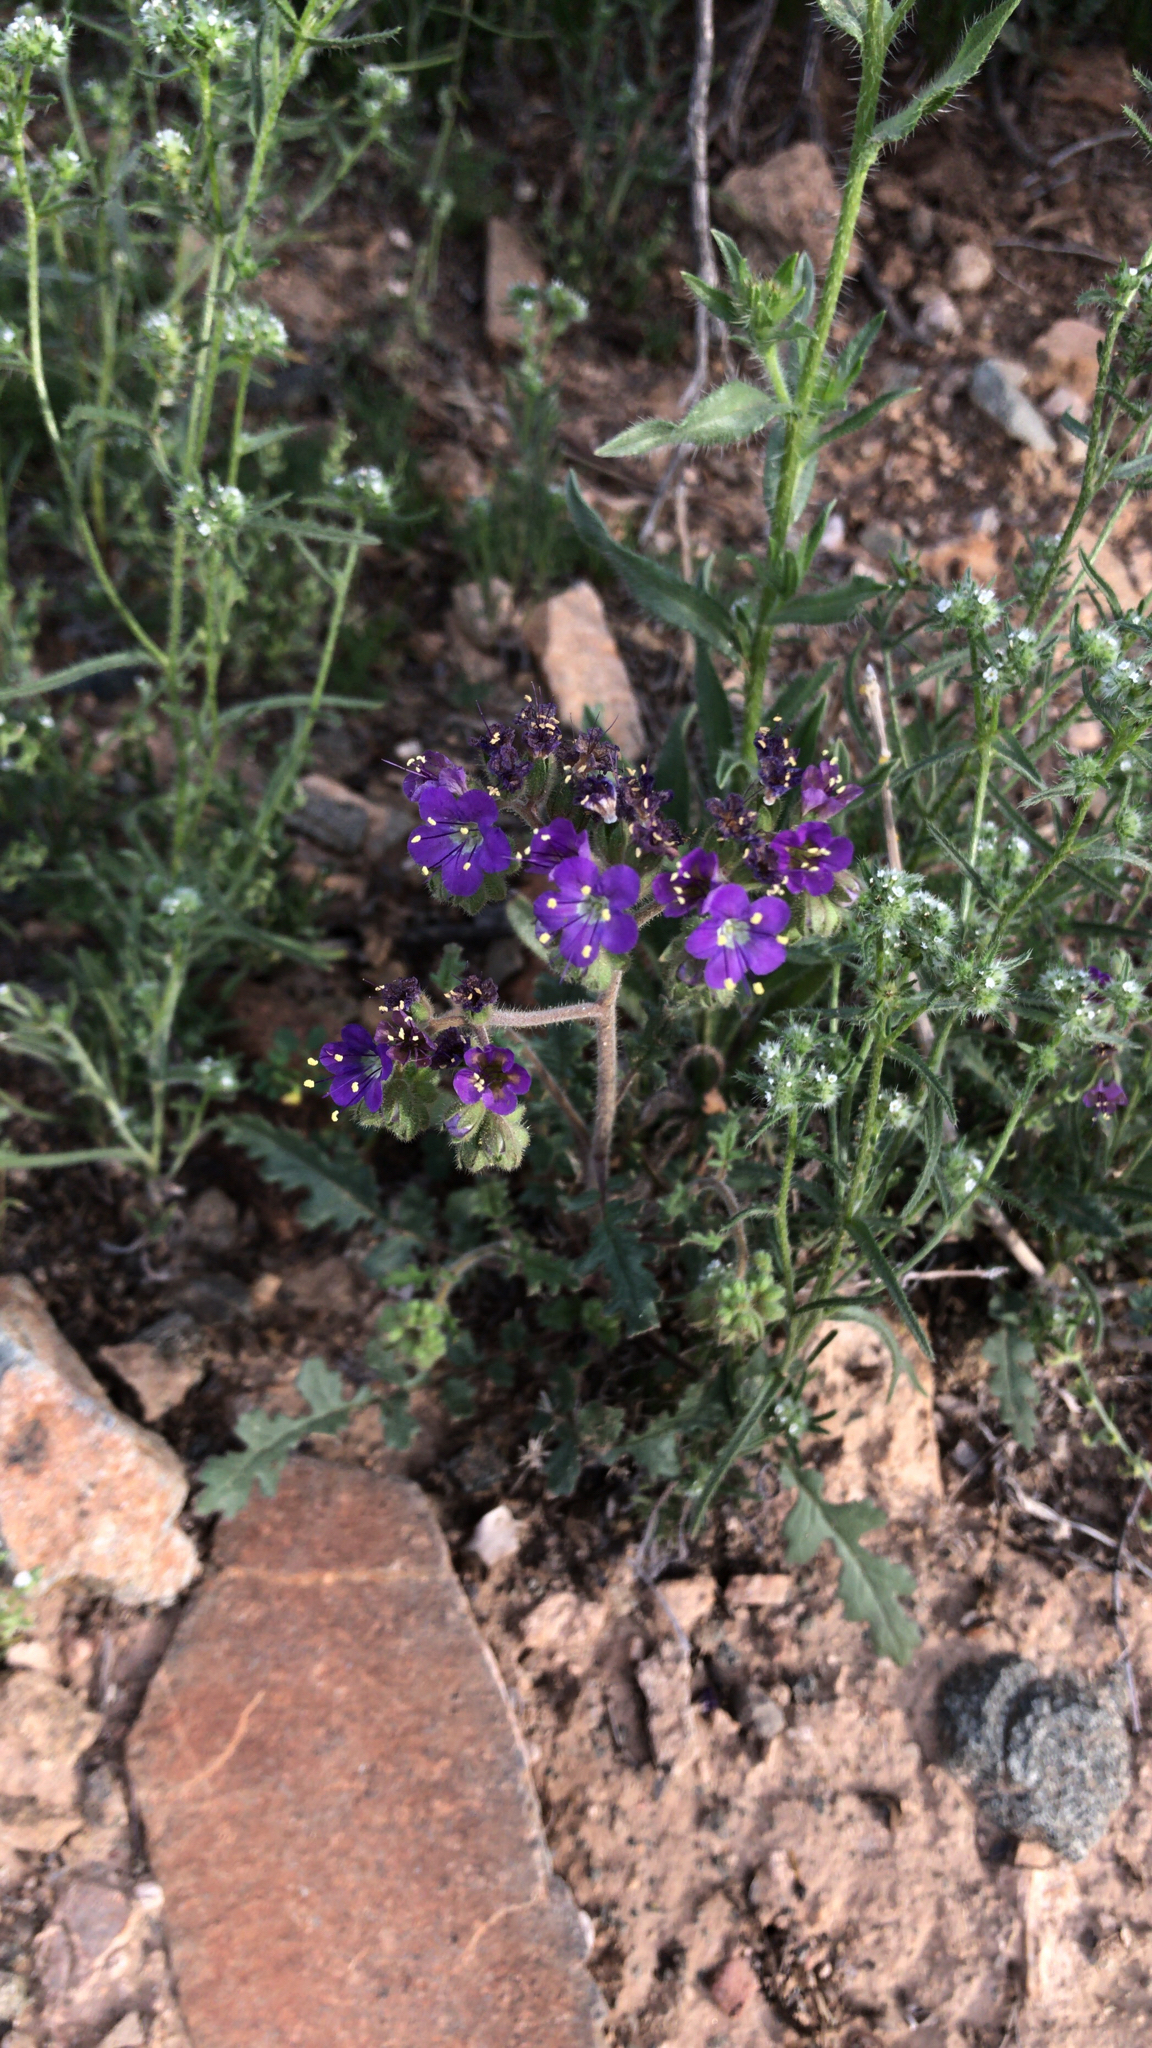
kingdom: Plantae
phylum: Tracheophyta
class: Magnoliopsida
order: Boraginales
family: Hydrophyllaceae
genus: Phacelia
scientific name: Phacelia crenulata
